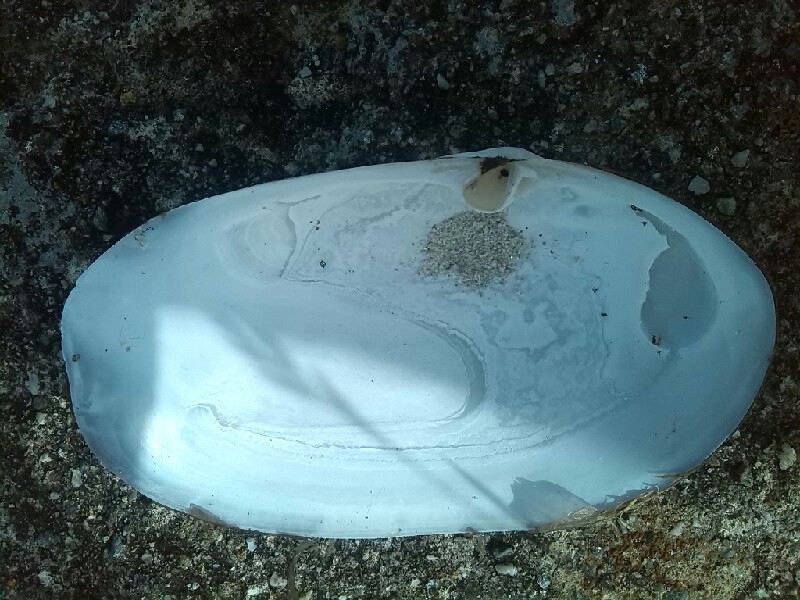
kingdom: Animalia
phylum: Mollusca
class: Bivalvia
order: Venerida
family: Mactridae
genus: Lutraria
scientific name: Lutraria lutraria
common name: Common otter shell
